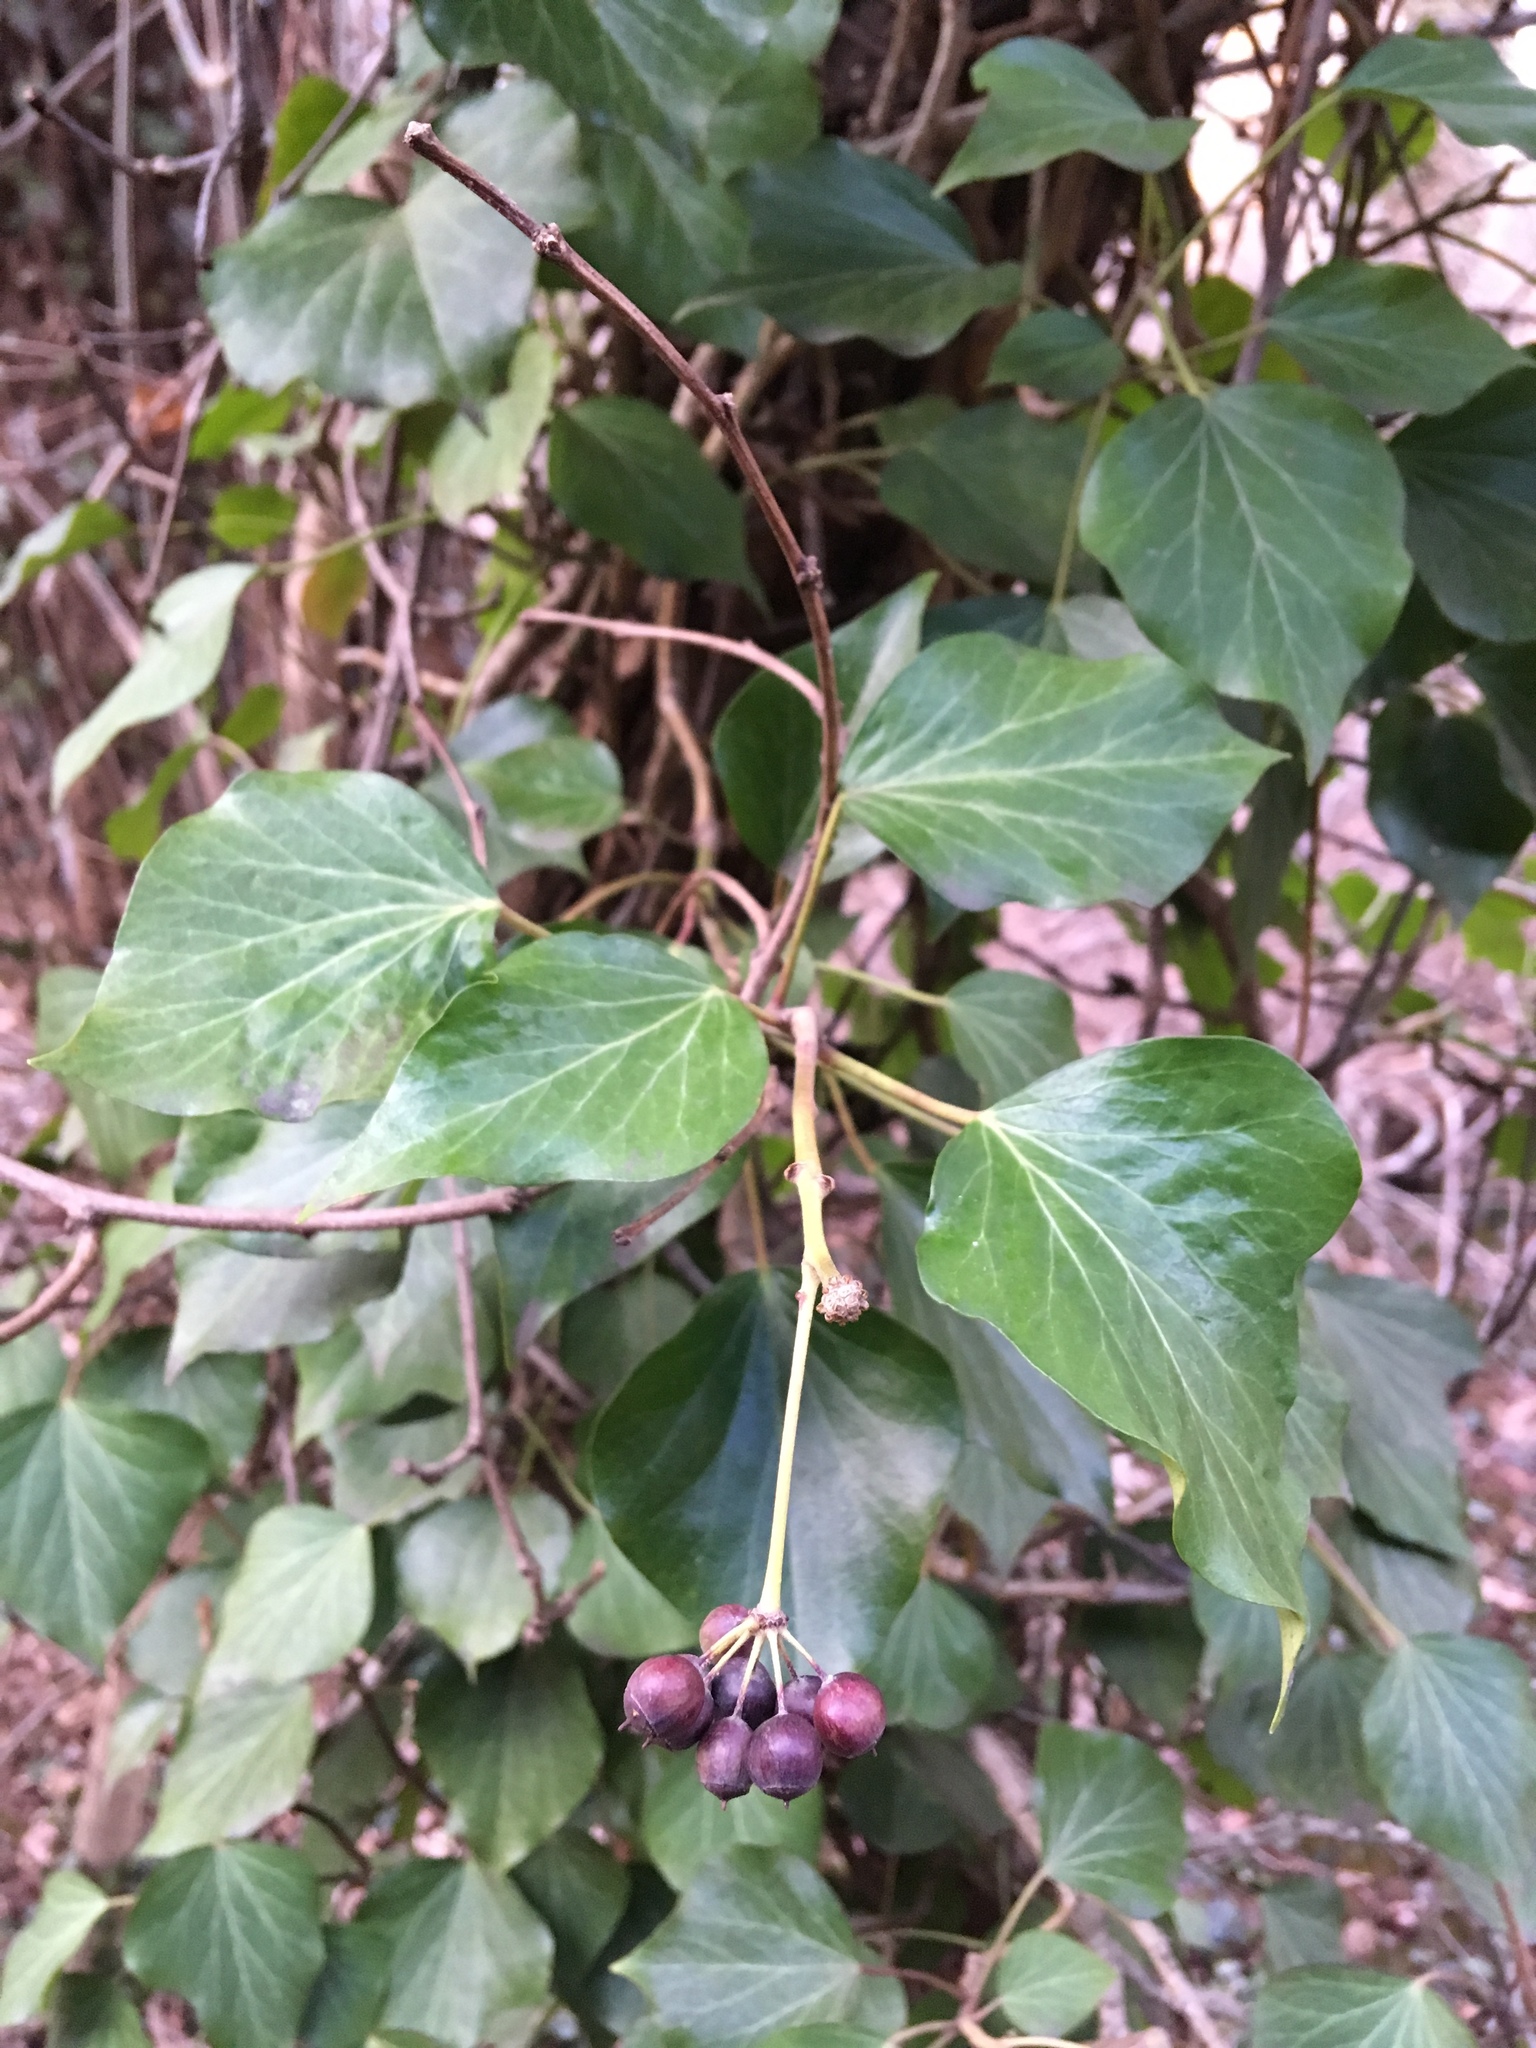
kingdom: Plantae
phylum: Tracheophyta
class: Magnoliopsida
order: Apiales
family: Araliaceae
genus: Hedera
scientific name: Hedera helix
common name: Ivy
